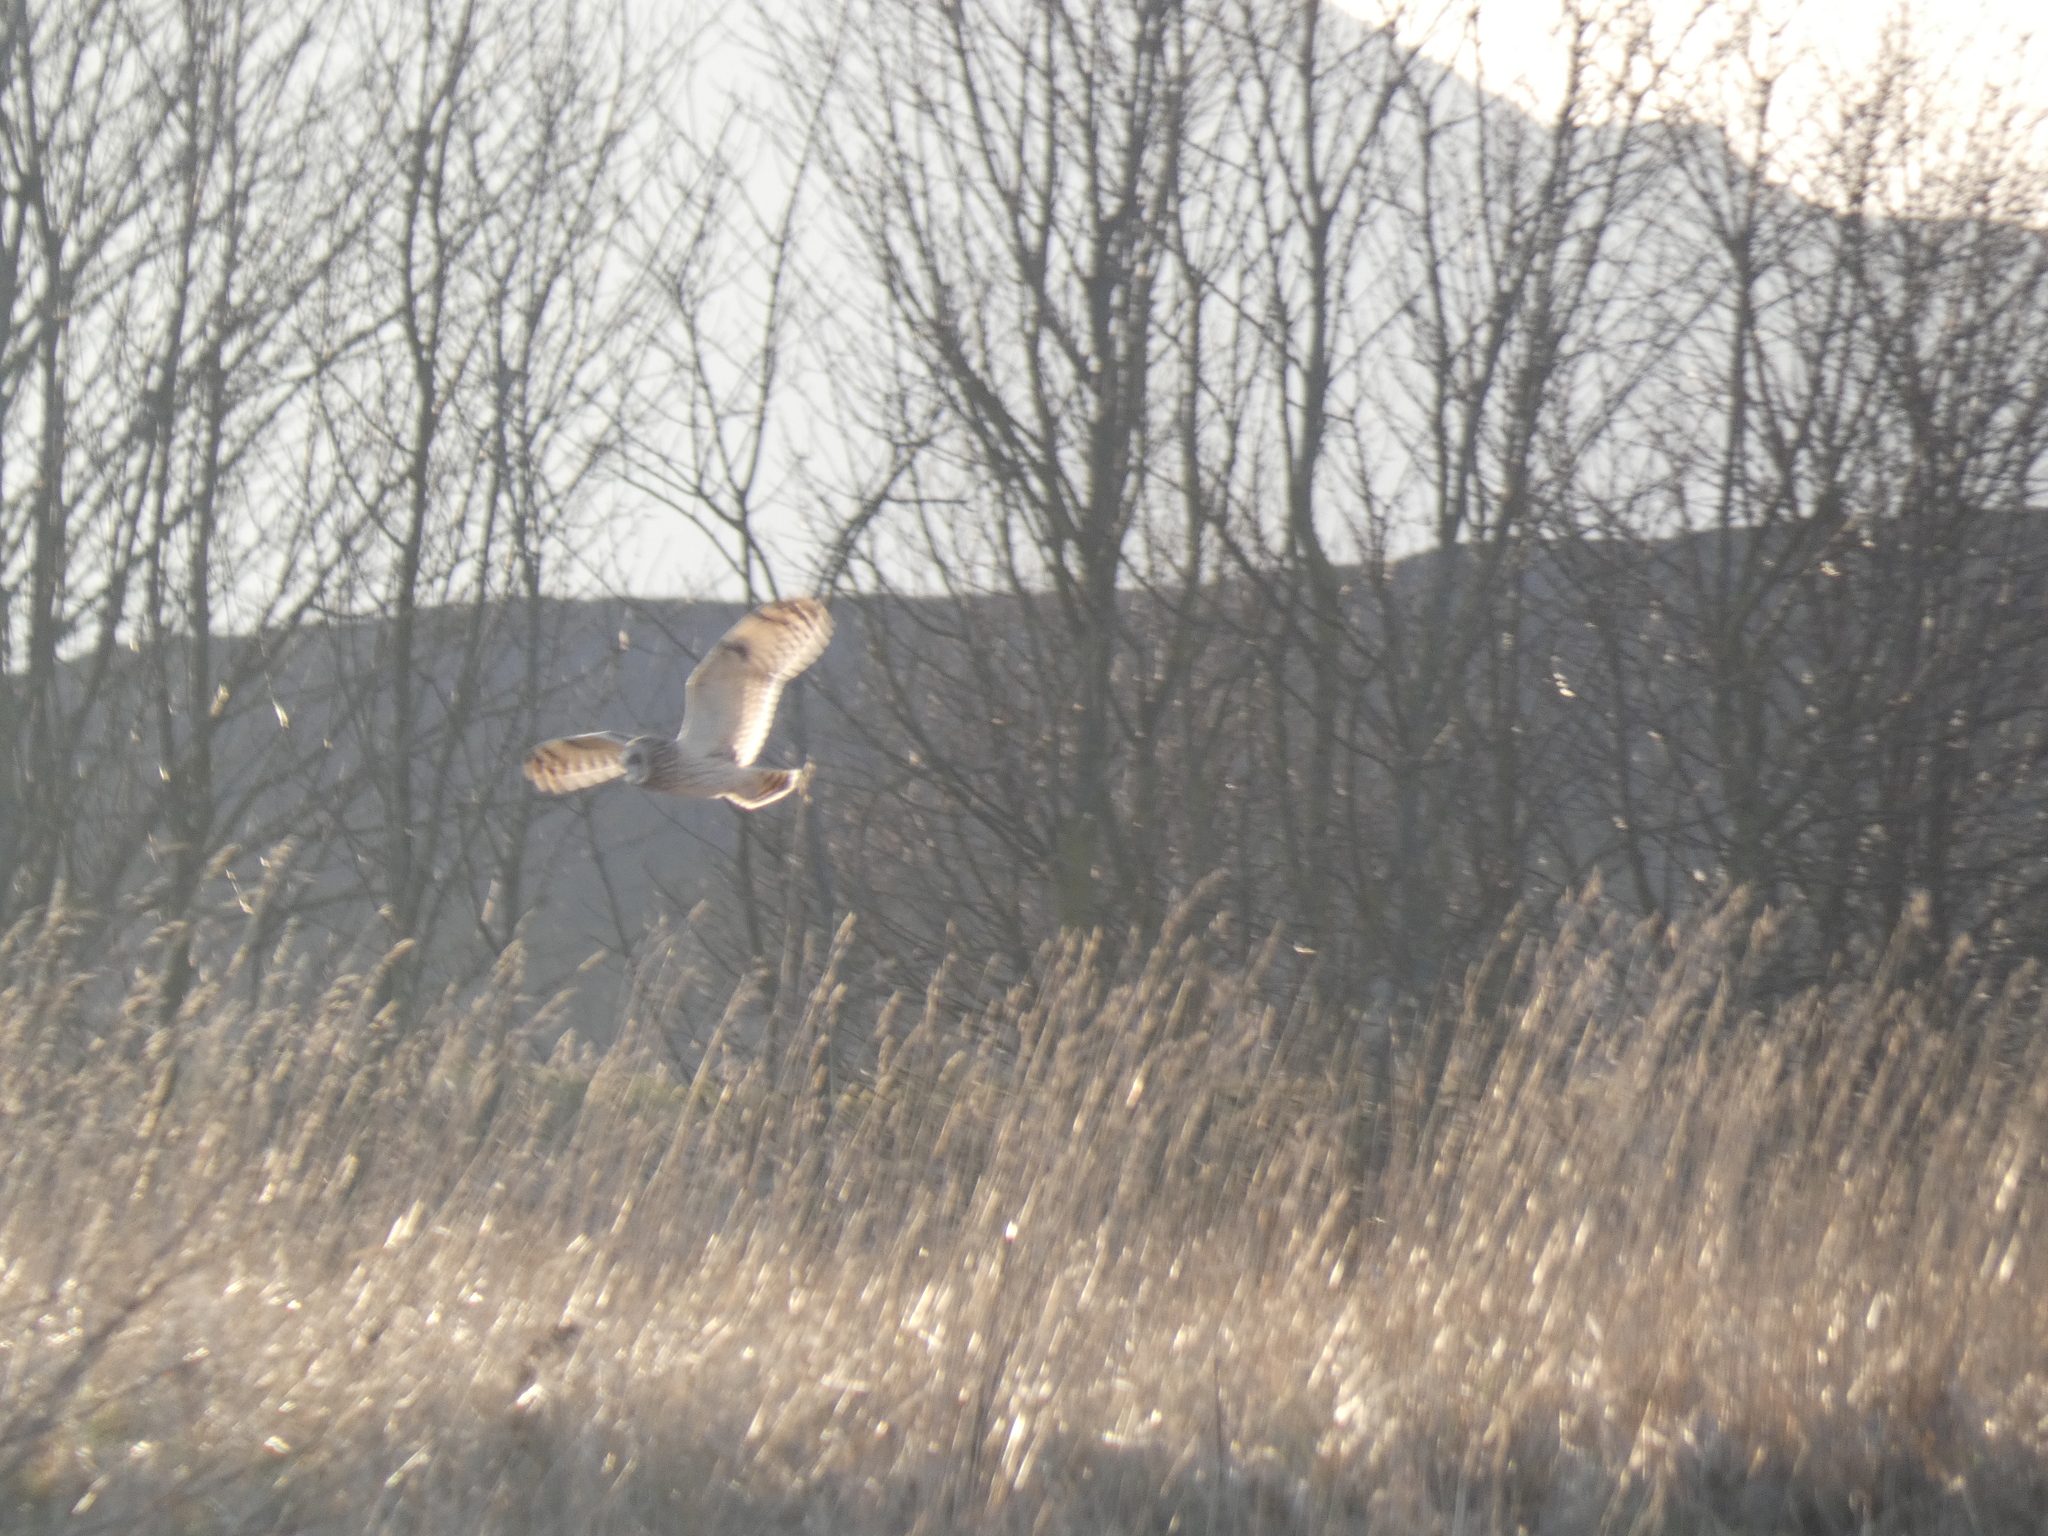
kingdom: Animalia
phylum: Chordata
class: Aves
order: Strigiformes
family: Strigidae
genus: Asio
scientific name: Asio flammeus
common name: Short-eared owl
